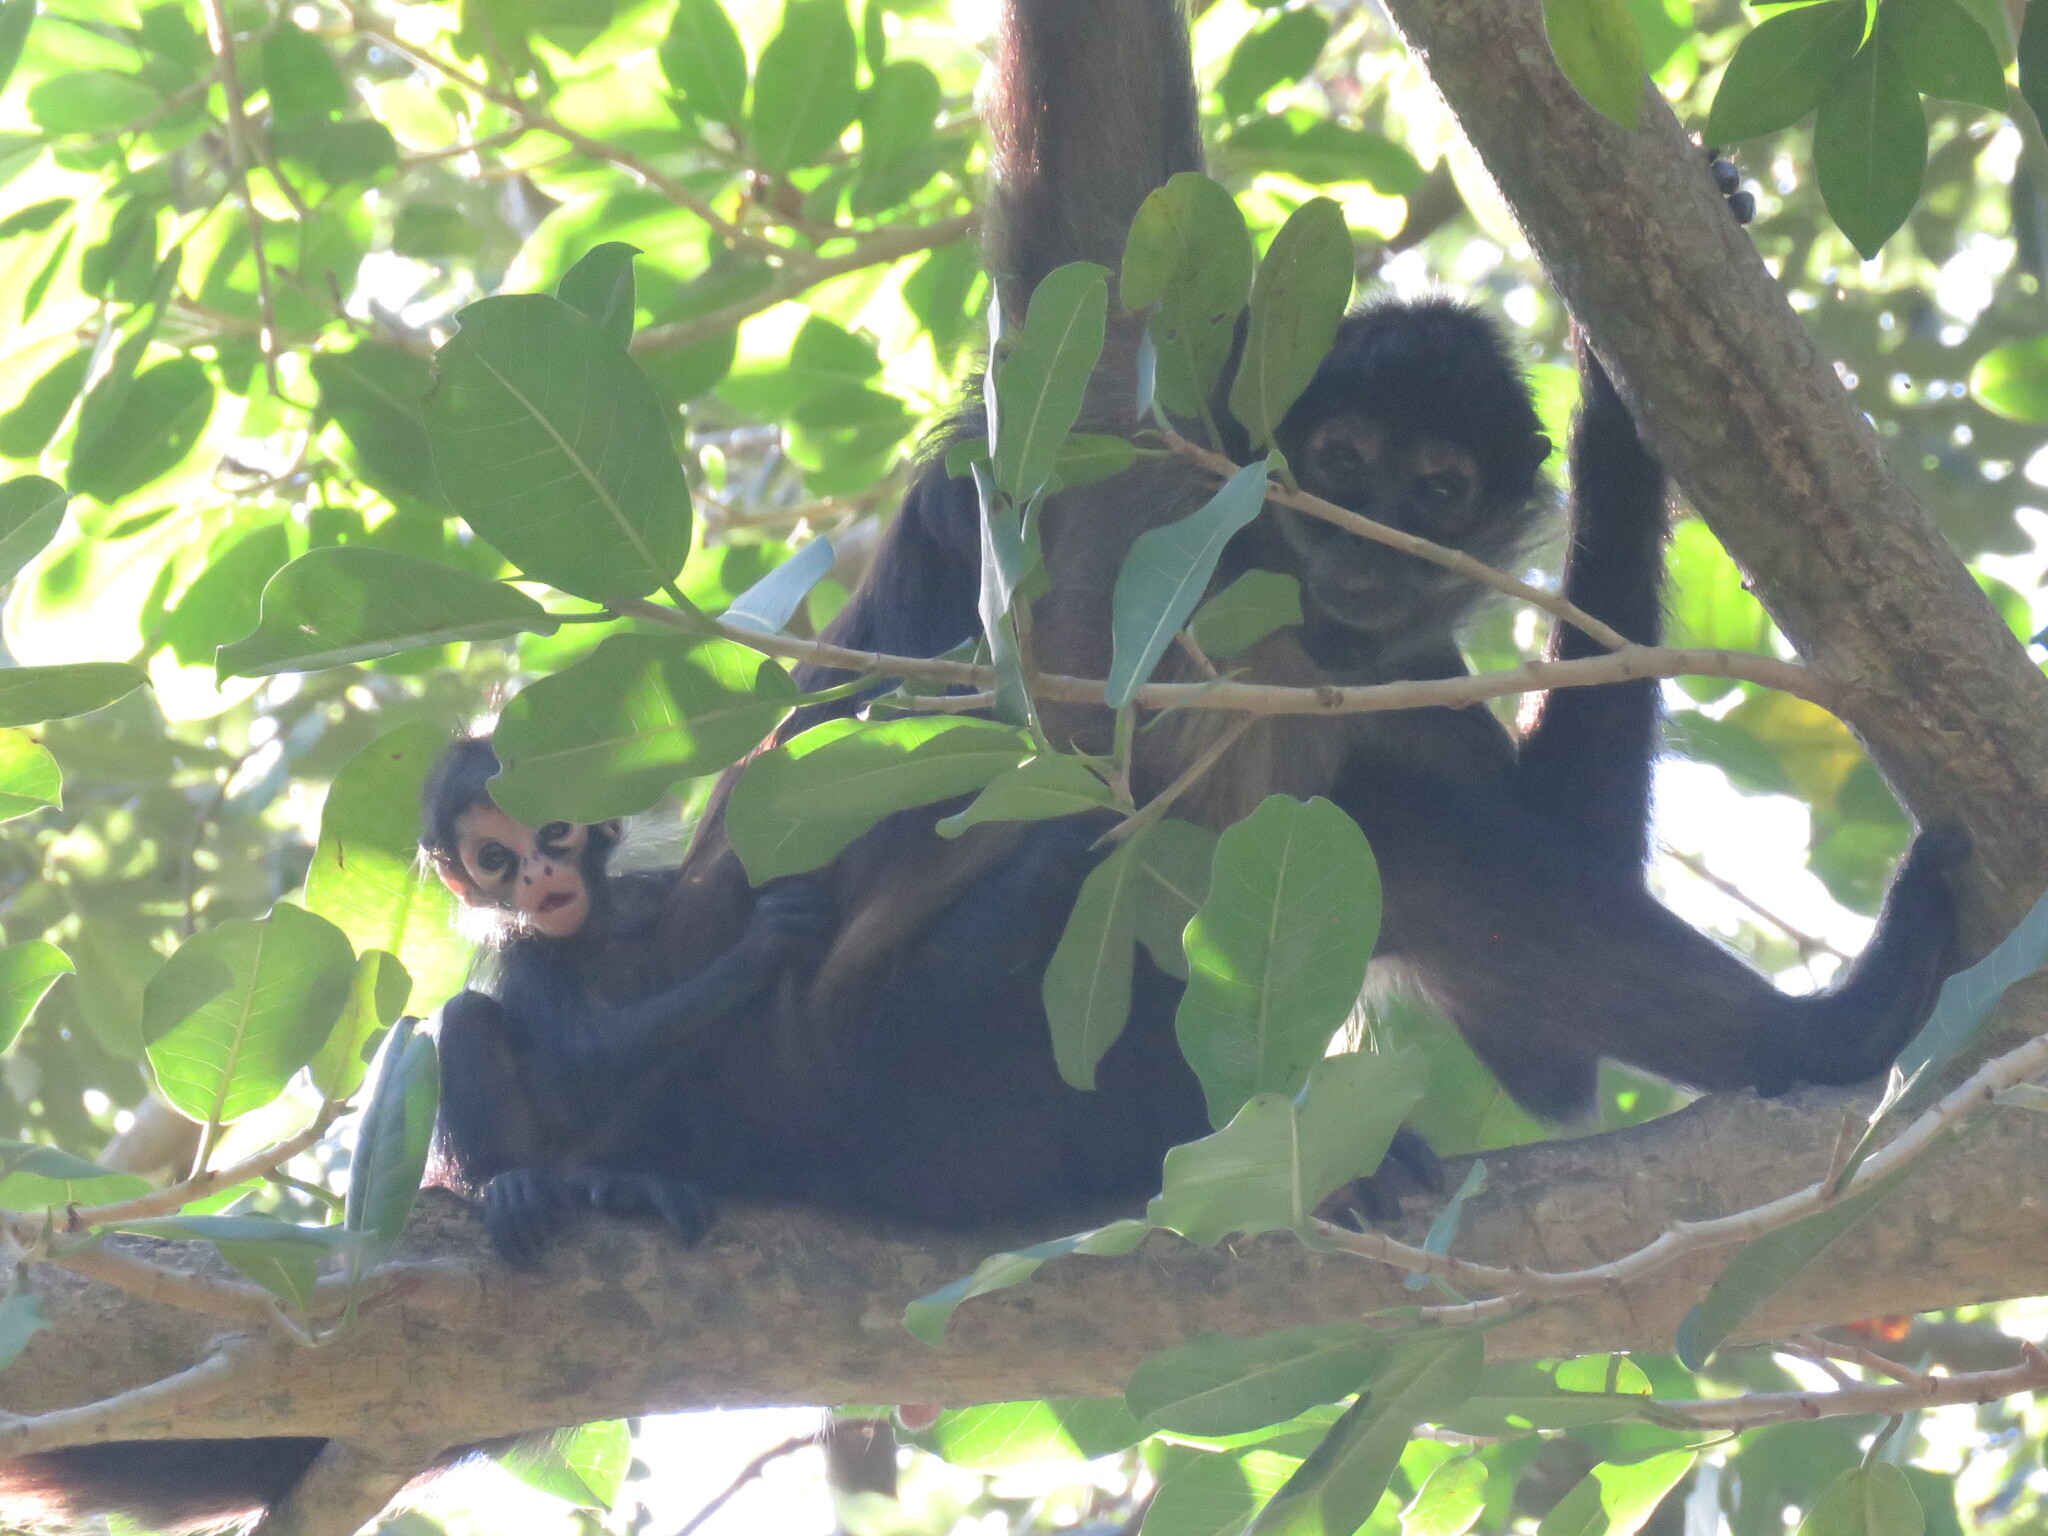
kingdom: Animalia
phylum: Chordata
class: Mammalia
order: Primates
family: Atelidae
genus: Ateles
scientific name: Ateles geoffroyi
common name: Black-handed spider monkey
